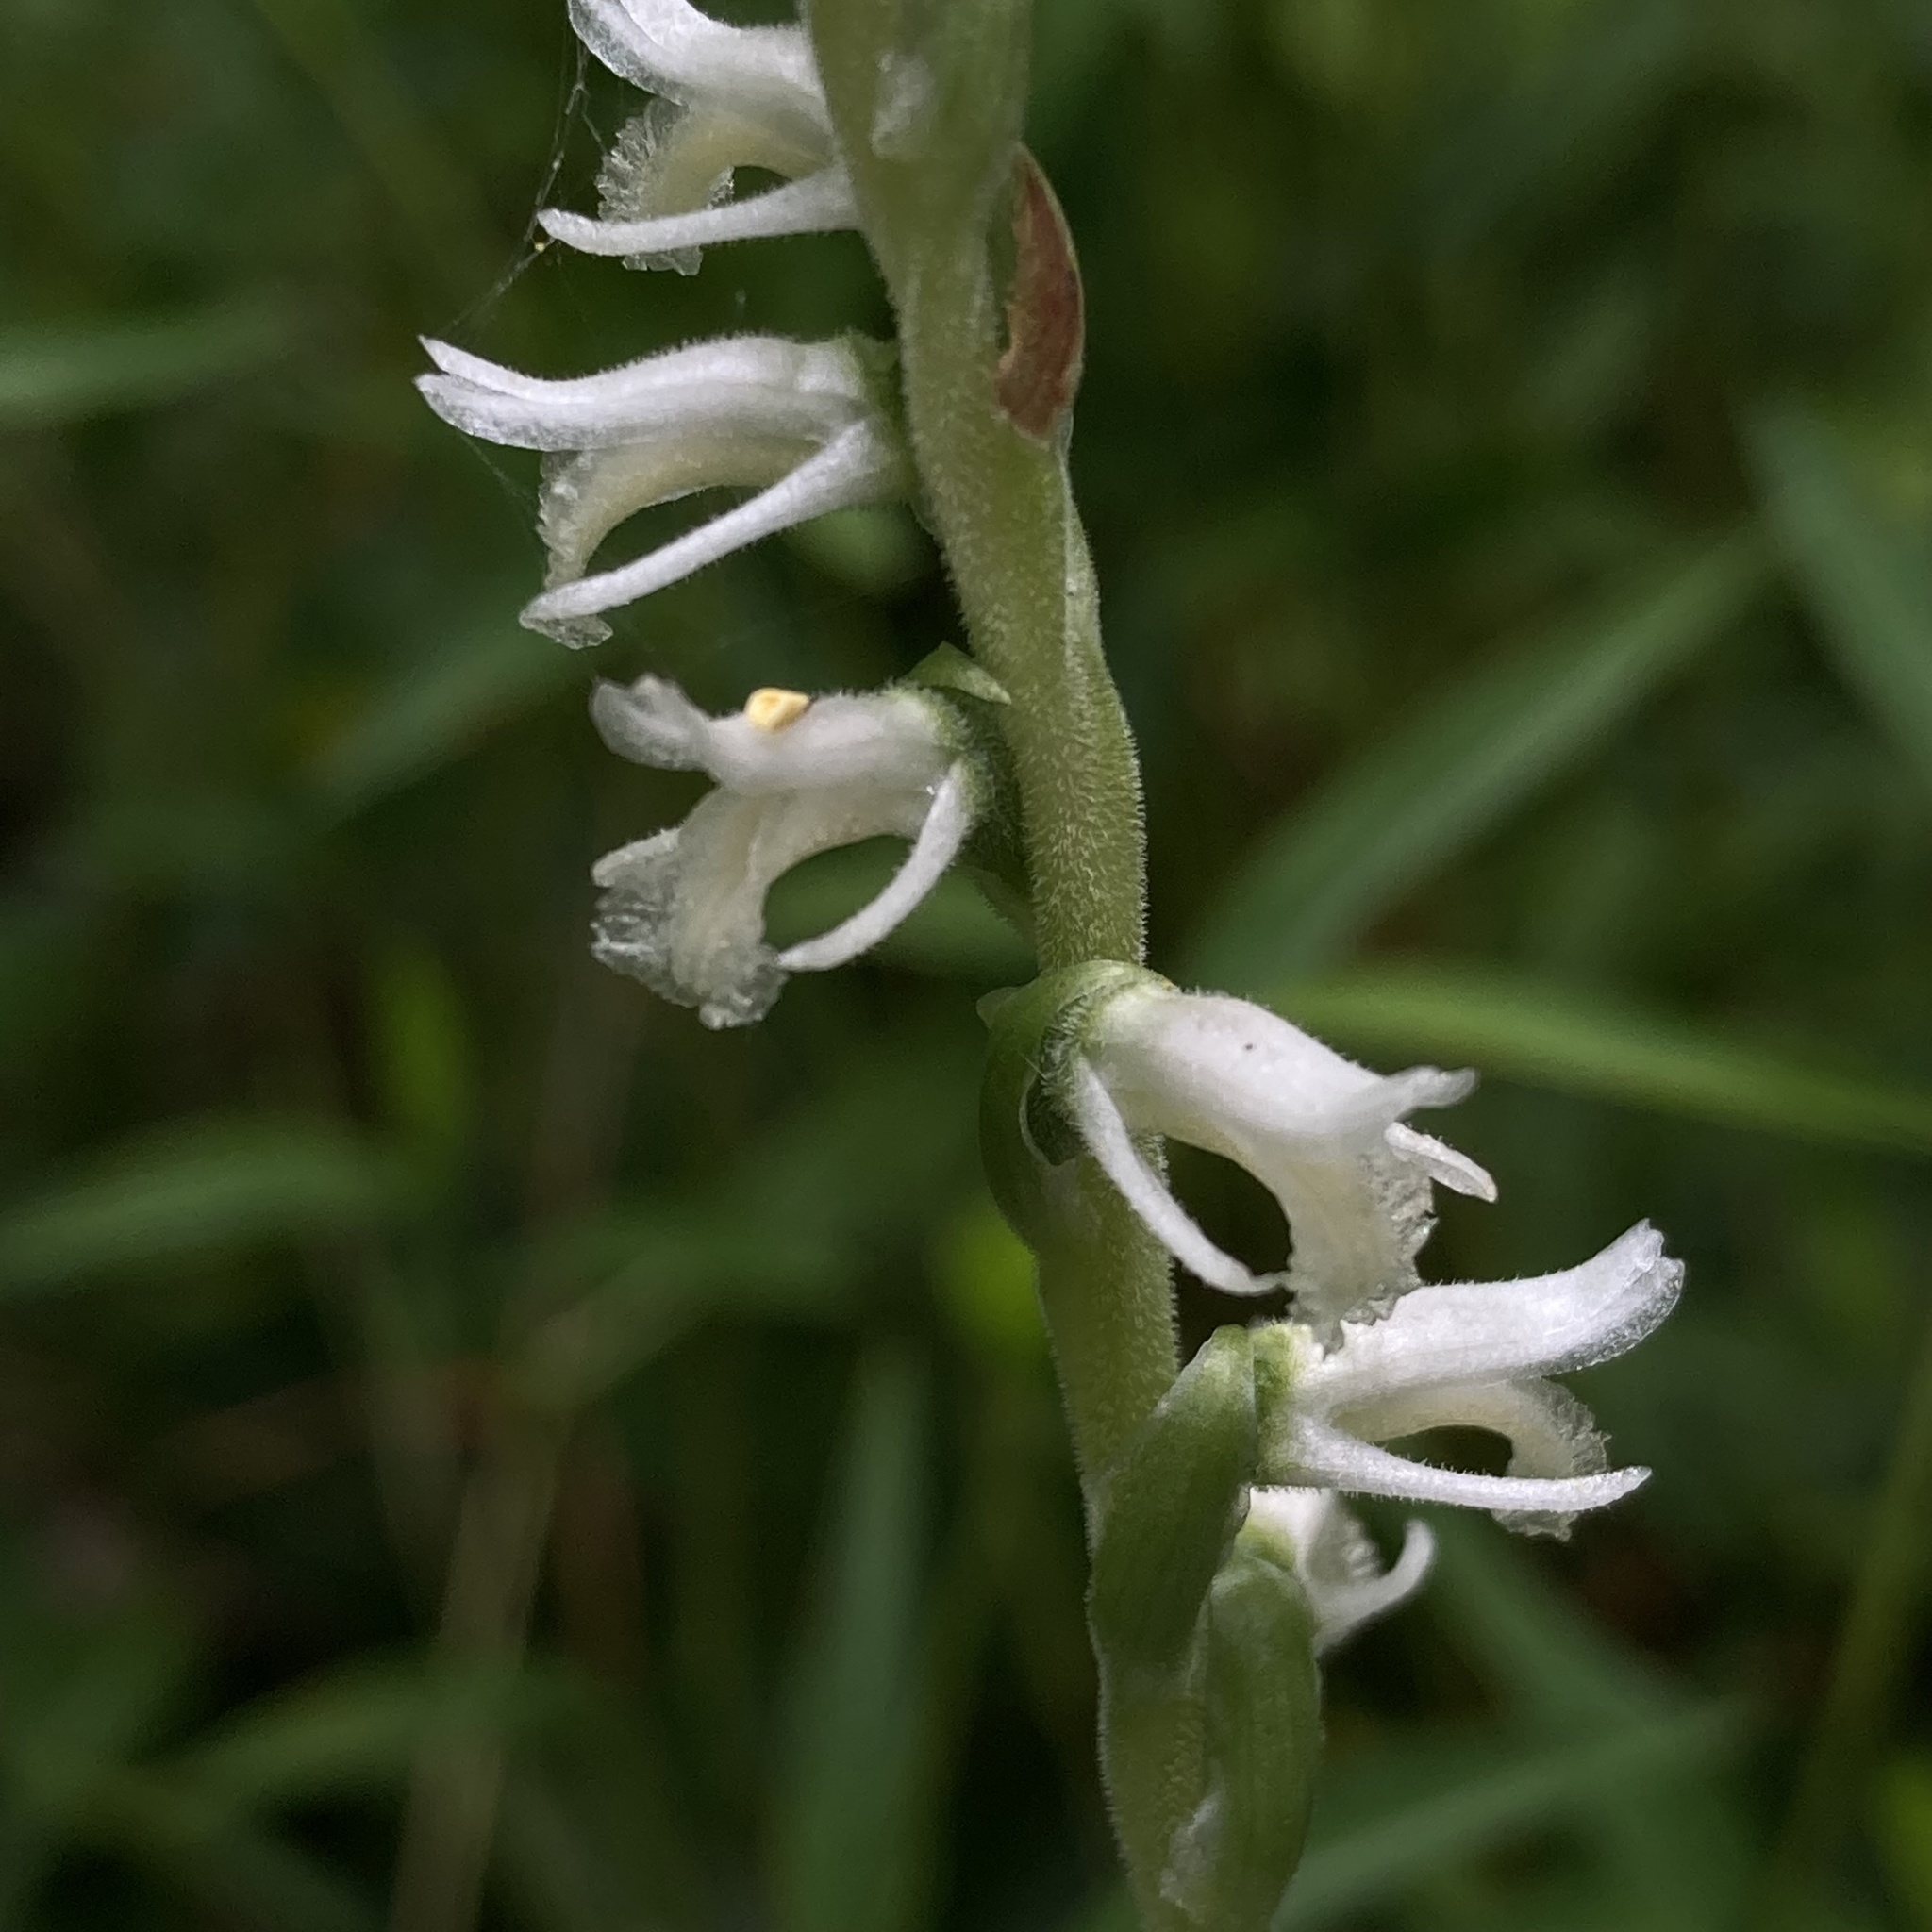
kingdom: Plantae
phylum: Tracheophyta
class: Liliopsida
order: Asparagales
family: Orchidaceae
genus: Spiranthes
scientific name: Spiranthes vernalis
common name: Spring ladies'-tresses
